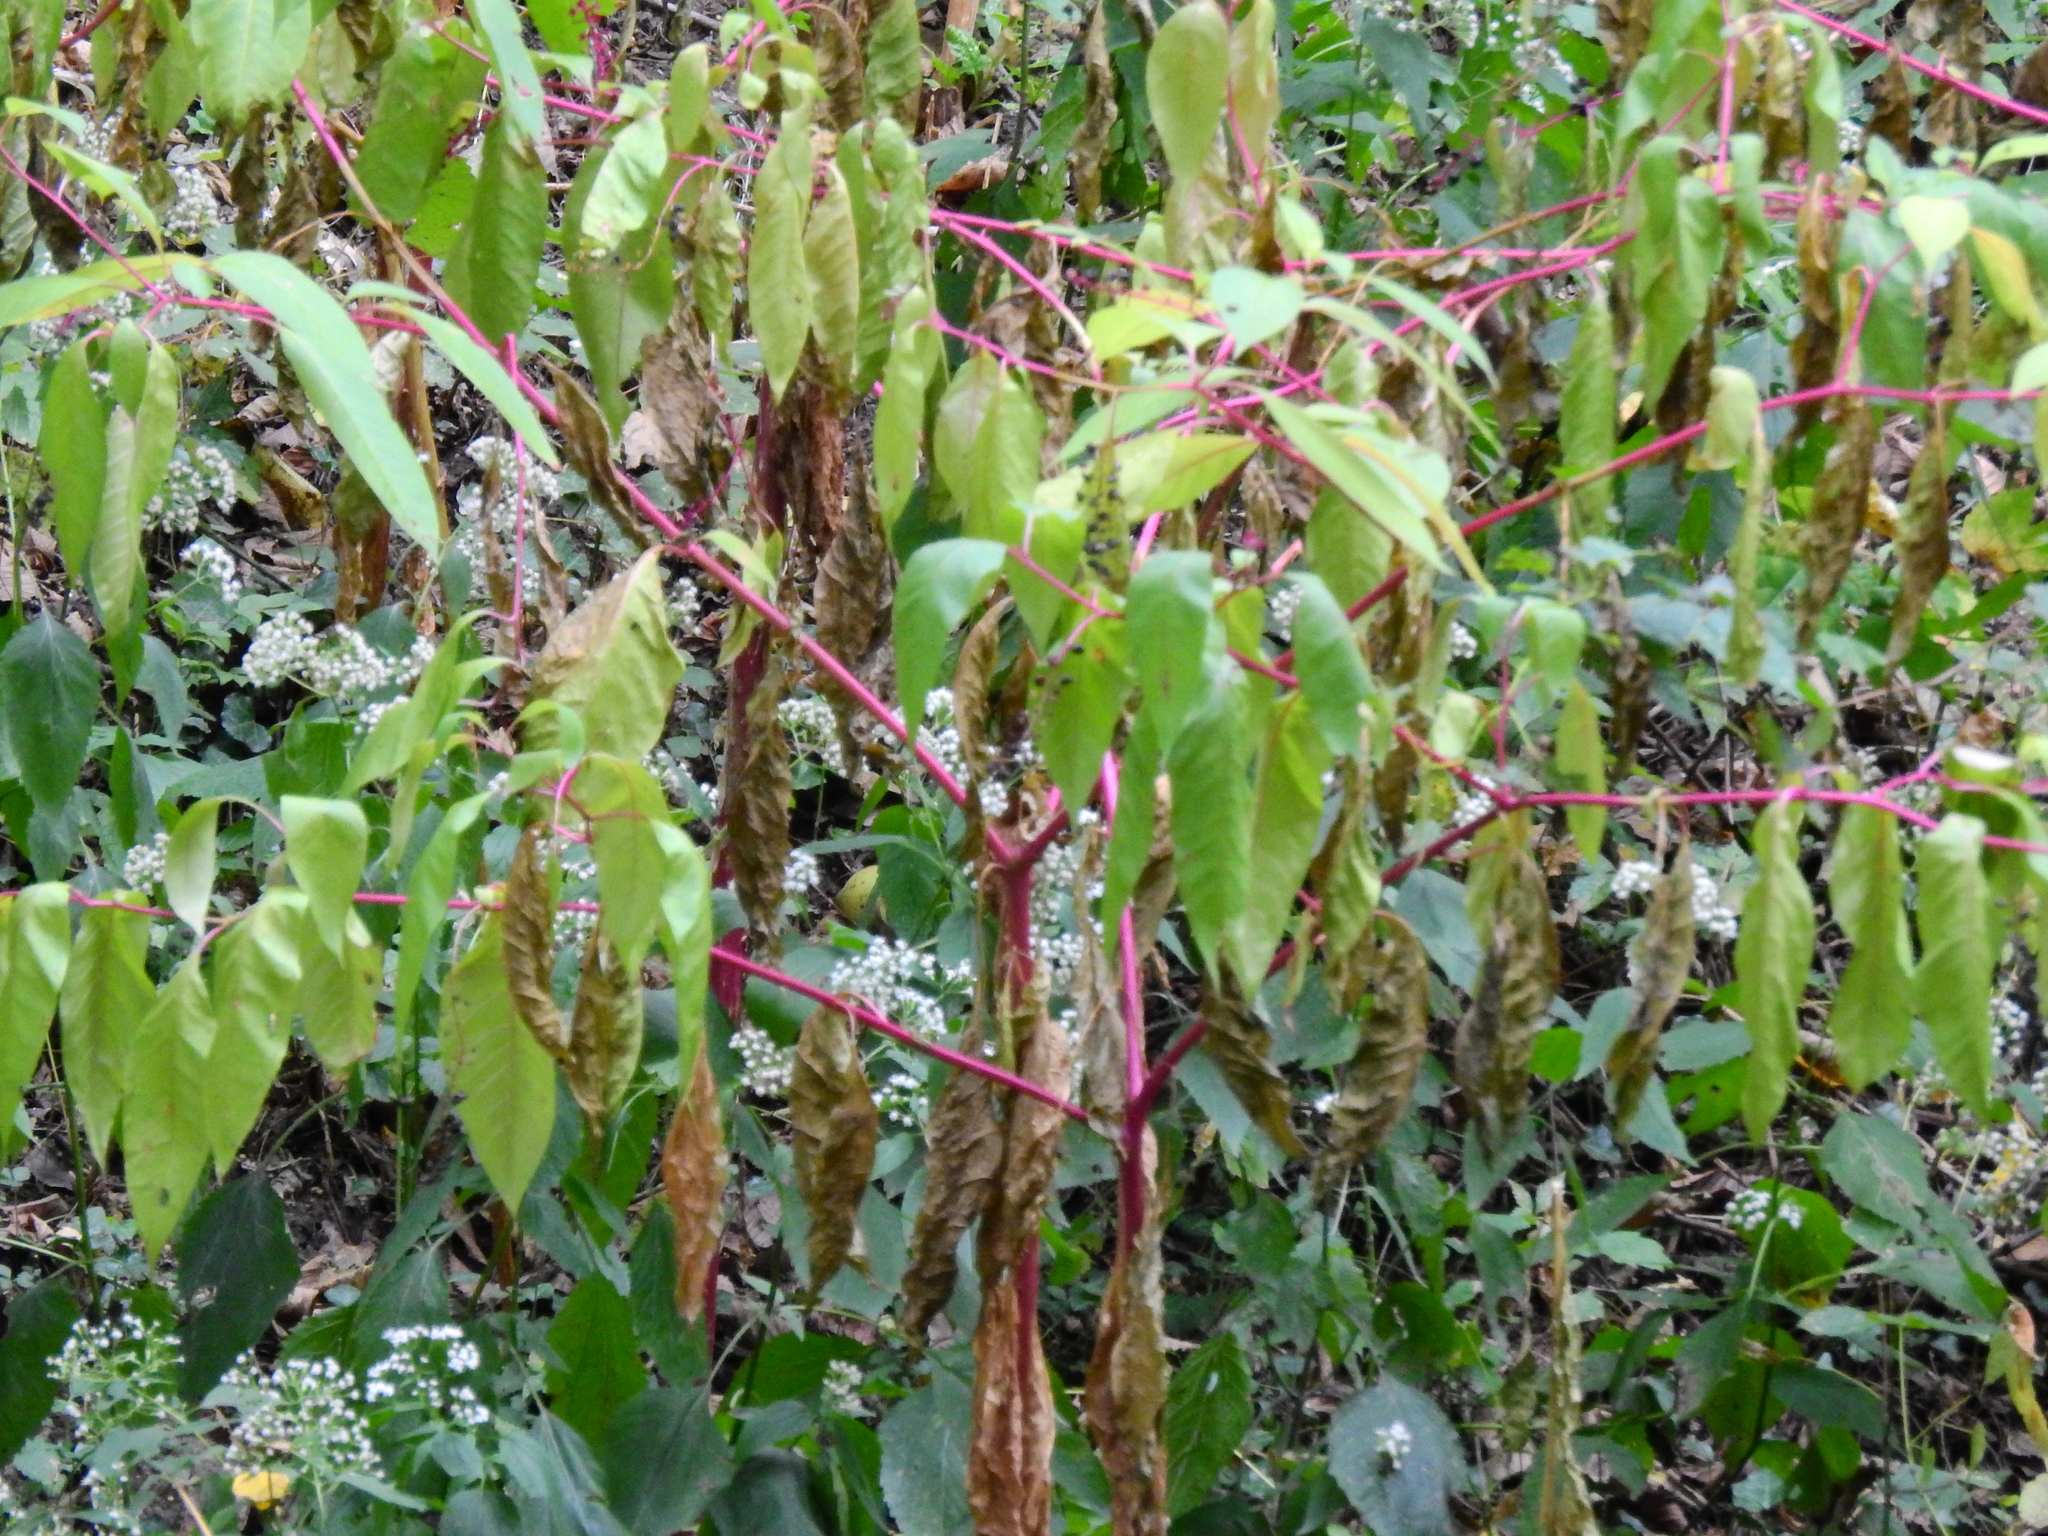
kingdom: Plantae
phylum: Tracheophyta
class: Magnoliopsida
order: Caryophyllales
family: Phytolaccaceae
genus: Phytolacca
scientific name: Phytolacca americana
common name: American pokeweed
